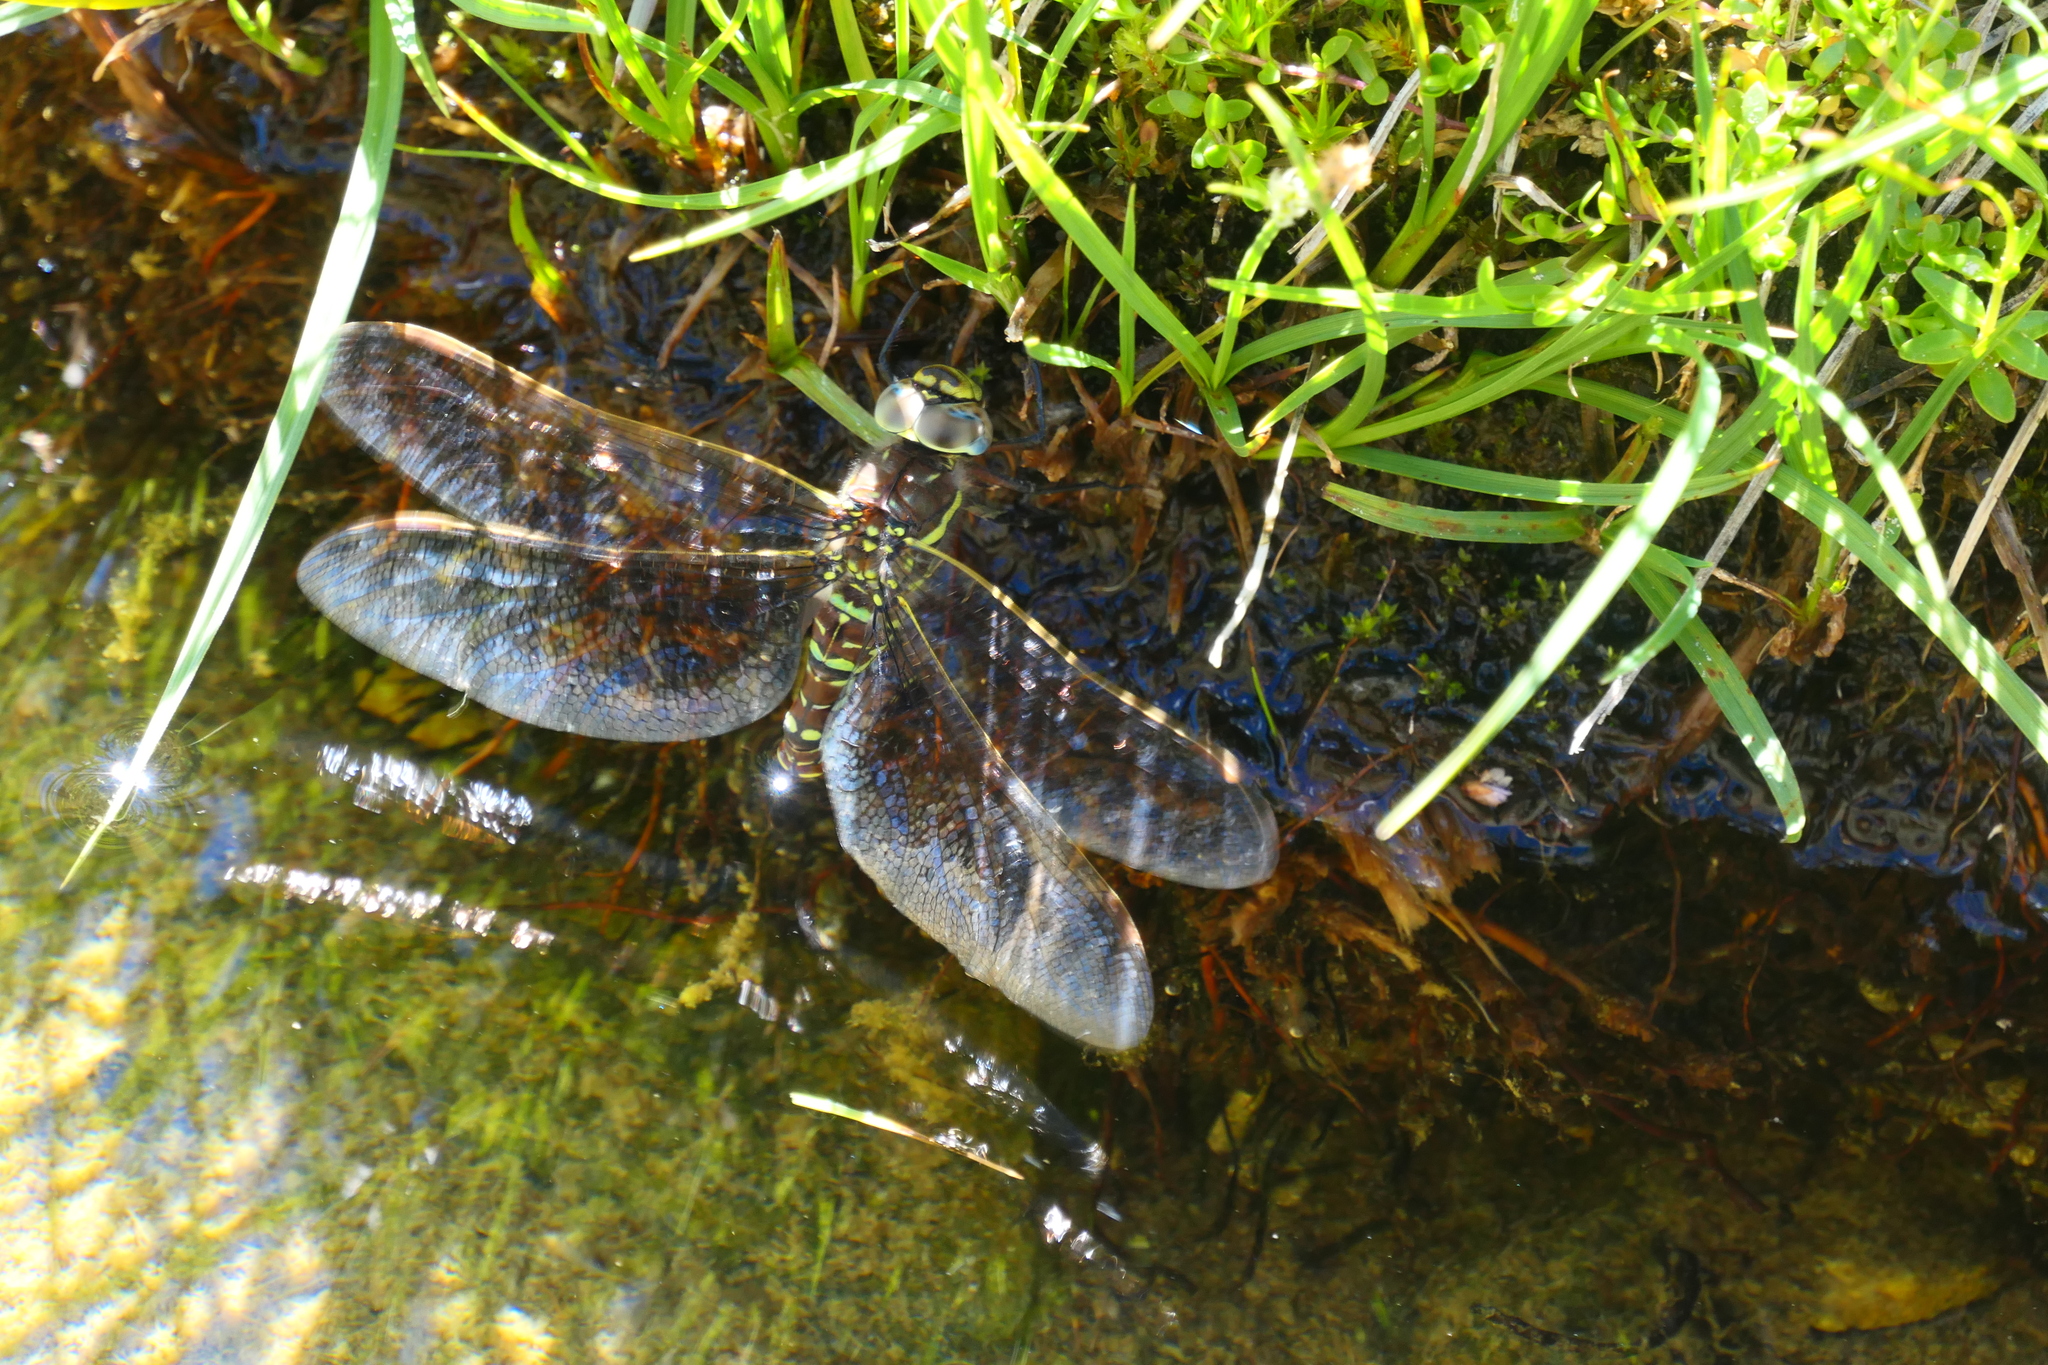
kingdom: Animalia
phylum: Arthropoda
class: Insecta
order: Odonata
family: Aeshnidae
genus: Aeshna
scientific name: Aeshna juncea
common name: Moorland hawker
